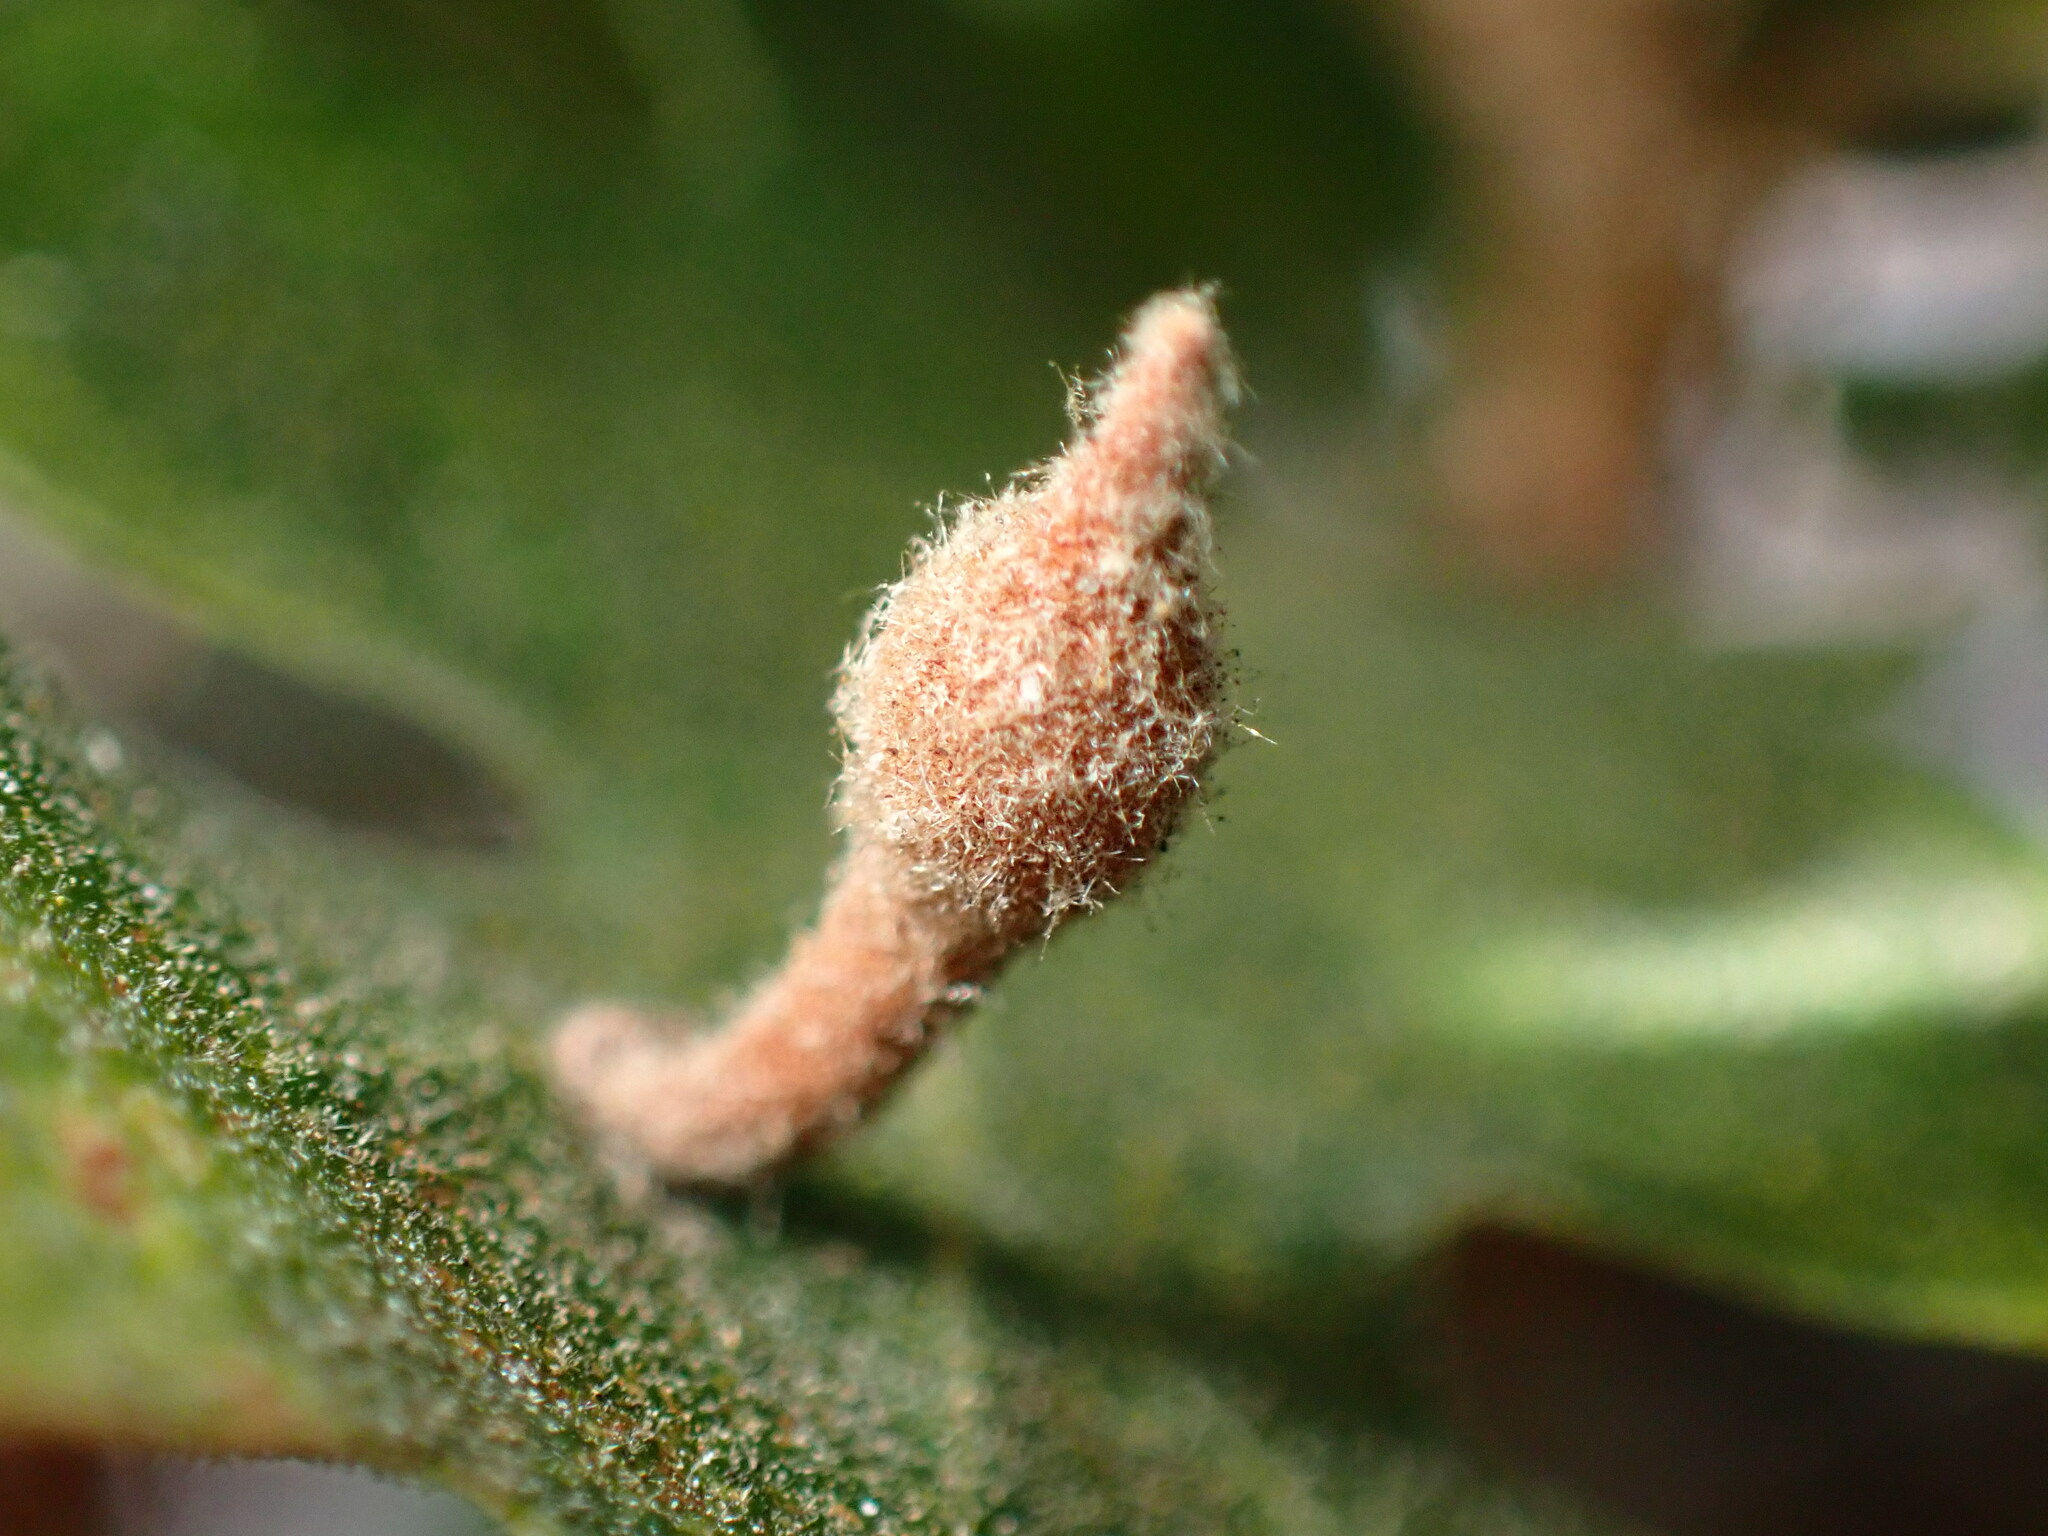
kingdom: Animalia
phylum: Arthropoda
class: Insecta
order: Hymenoptera
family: Cynipidae
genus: Atrusca
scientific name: Atrusca
